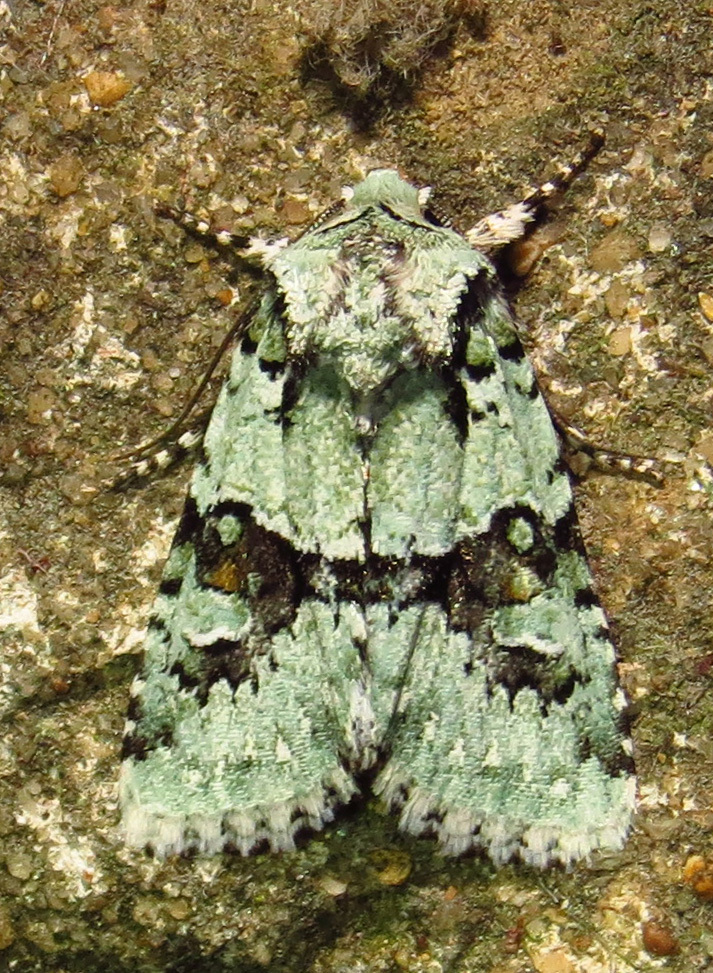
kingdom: Animalia
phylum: Arthropoda
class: Insecta
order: Lepidoptera
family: Noctuidae
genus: Lacinipolia
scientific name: Lacinipolia implicata
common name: Implicit arches
